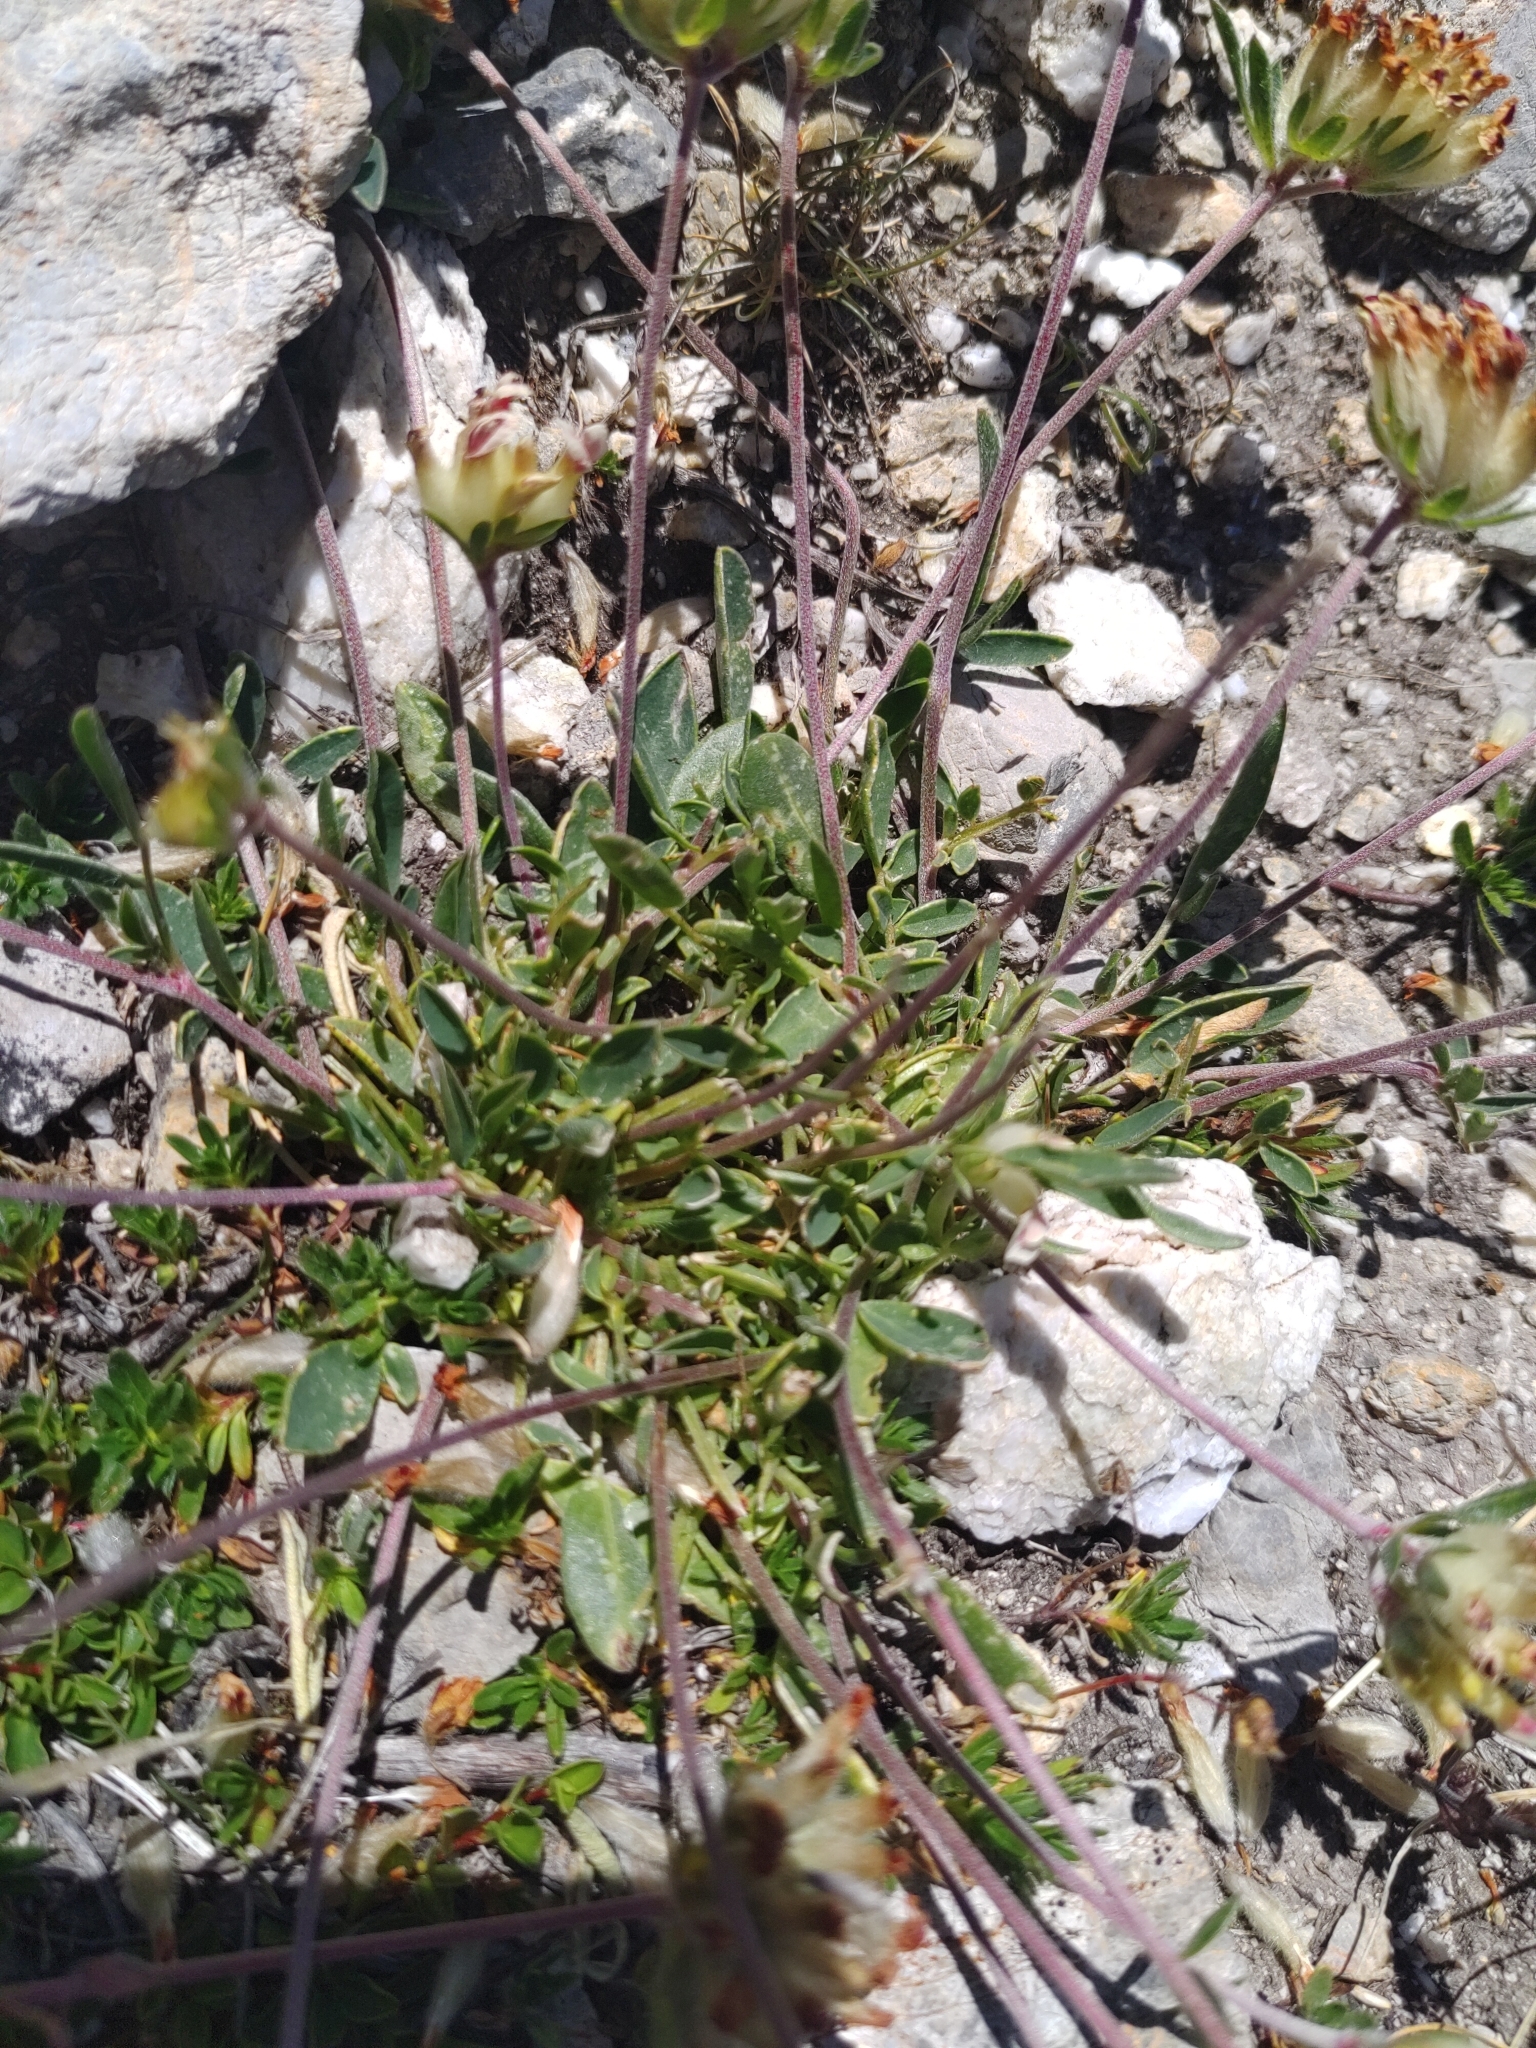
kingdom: Plantae
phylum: Tracheophyta
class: Magnoliopsida
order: Fabales
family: Fabaceae
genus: Anthyllis
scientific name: Anthyllis vulneraria
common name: Kidney vetch
